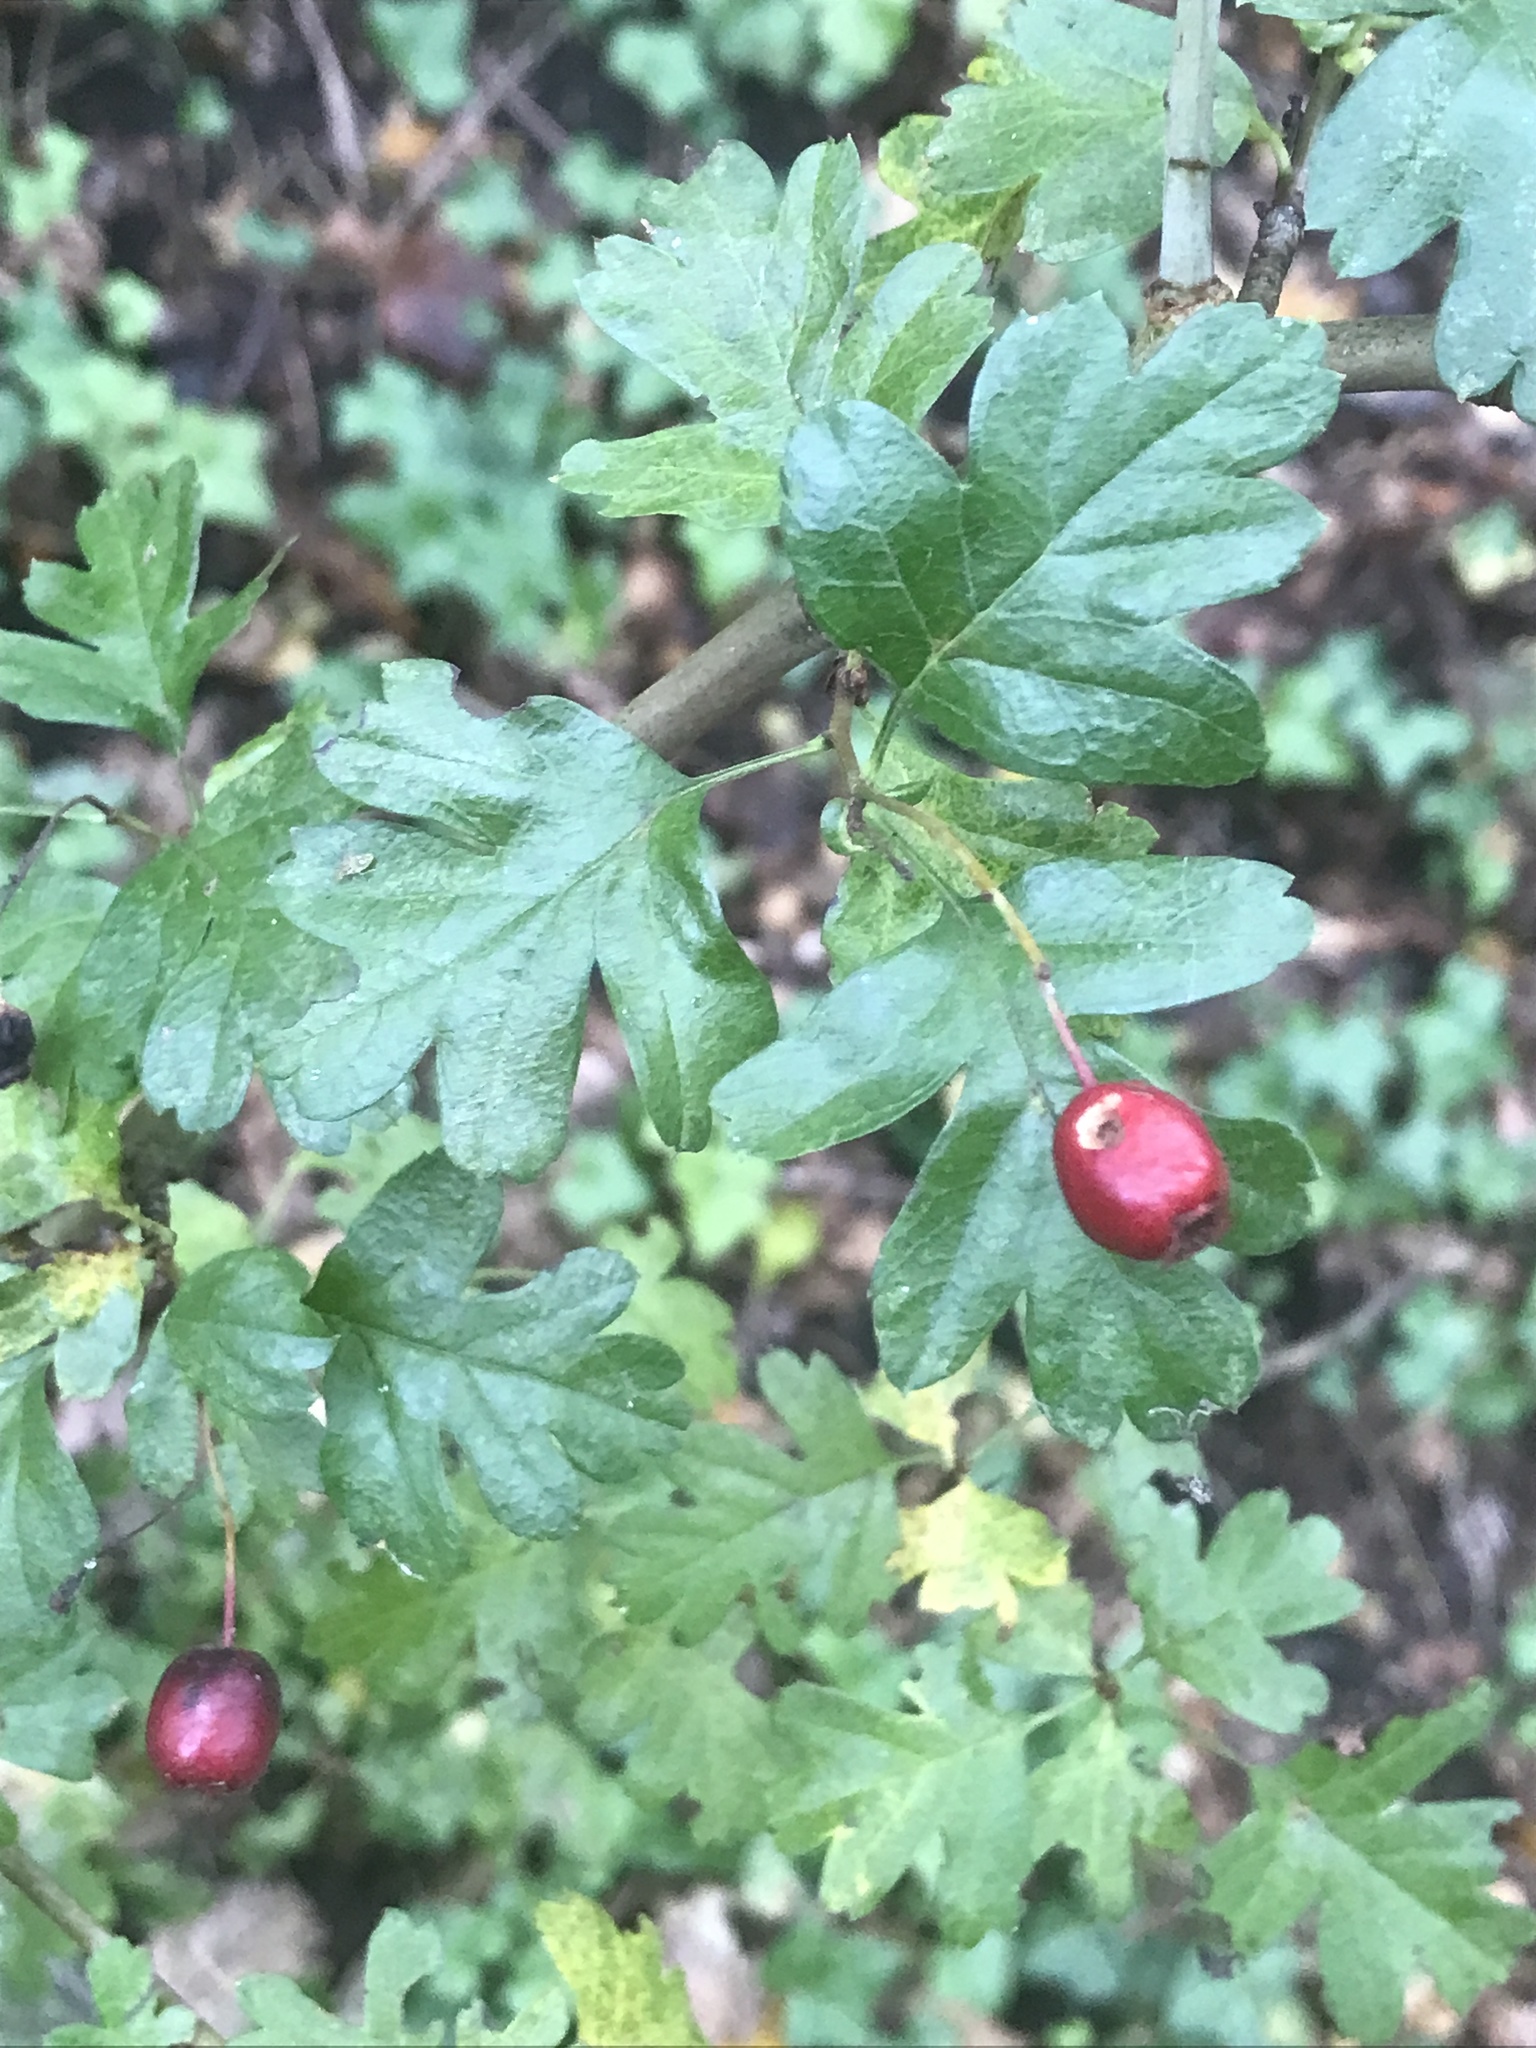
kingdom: Plantae
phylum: Tracheophyta
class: Magnoliopsida
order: Rosales
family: Rosaceae
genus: Crataegus
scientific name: Crataegus monogyna
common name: Hawthorn
